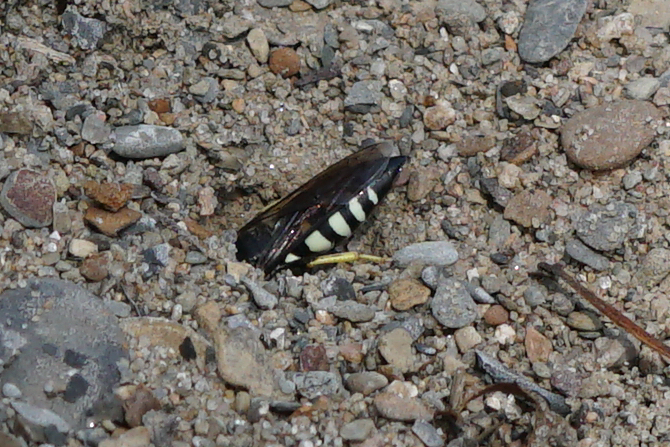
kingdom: Animalia
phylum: Arthropoda
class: Insecta
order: Hymenoptera
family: Crabronidae
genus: Bicyrtes
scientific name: Bicyrtes quadrifasciatus
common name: Four-banded stink bug hunter wasp
